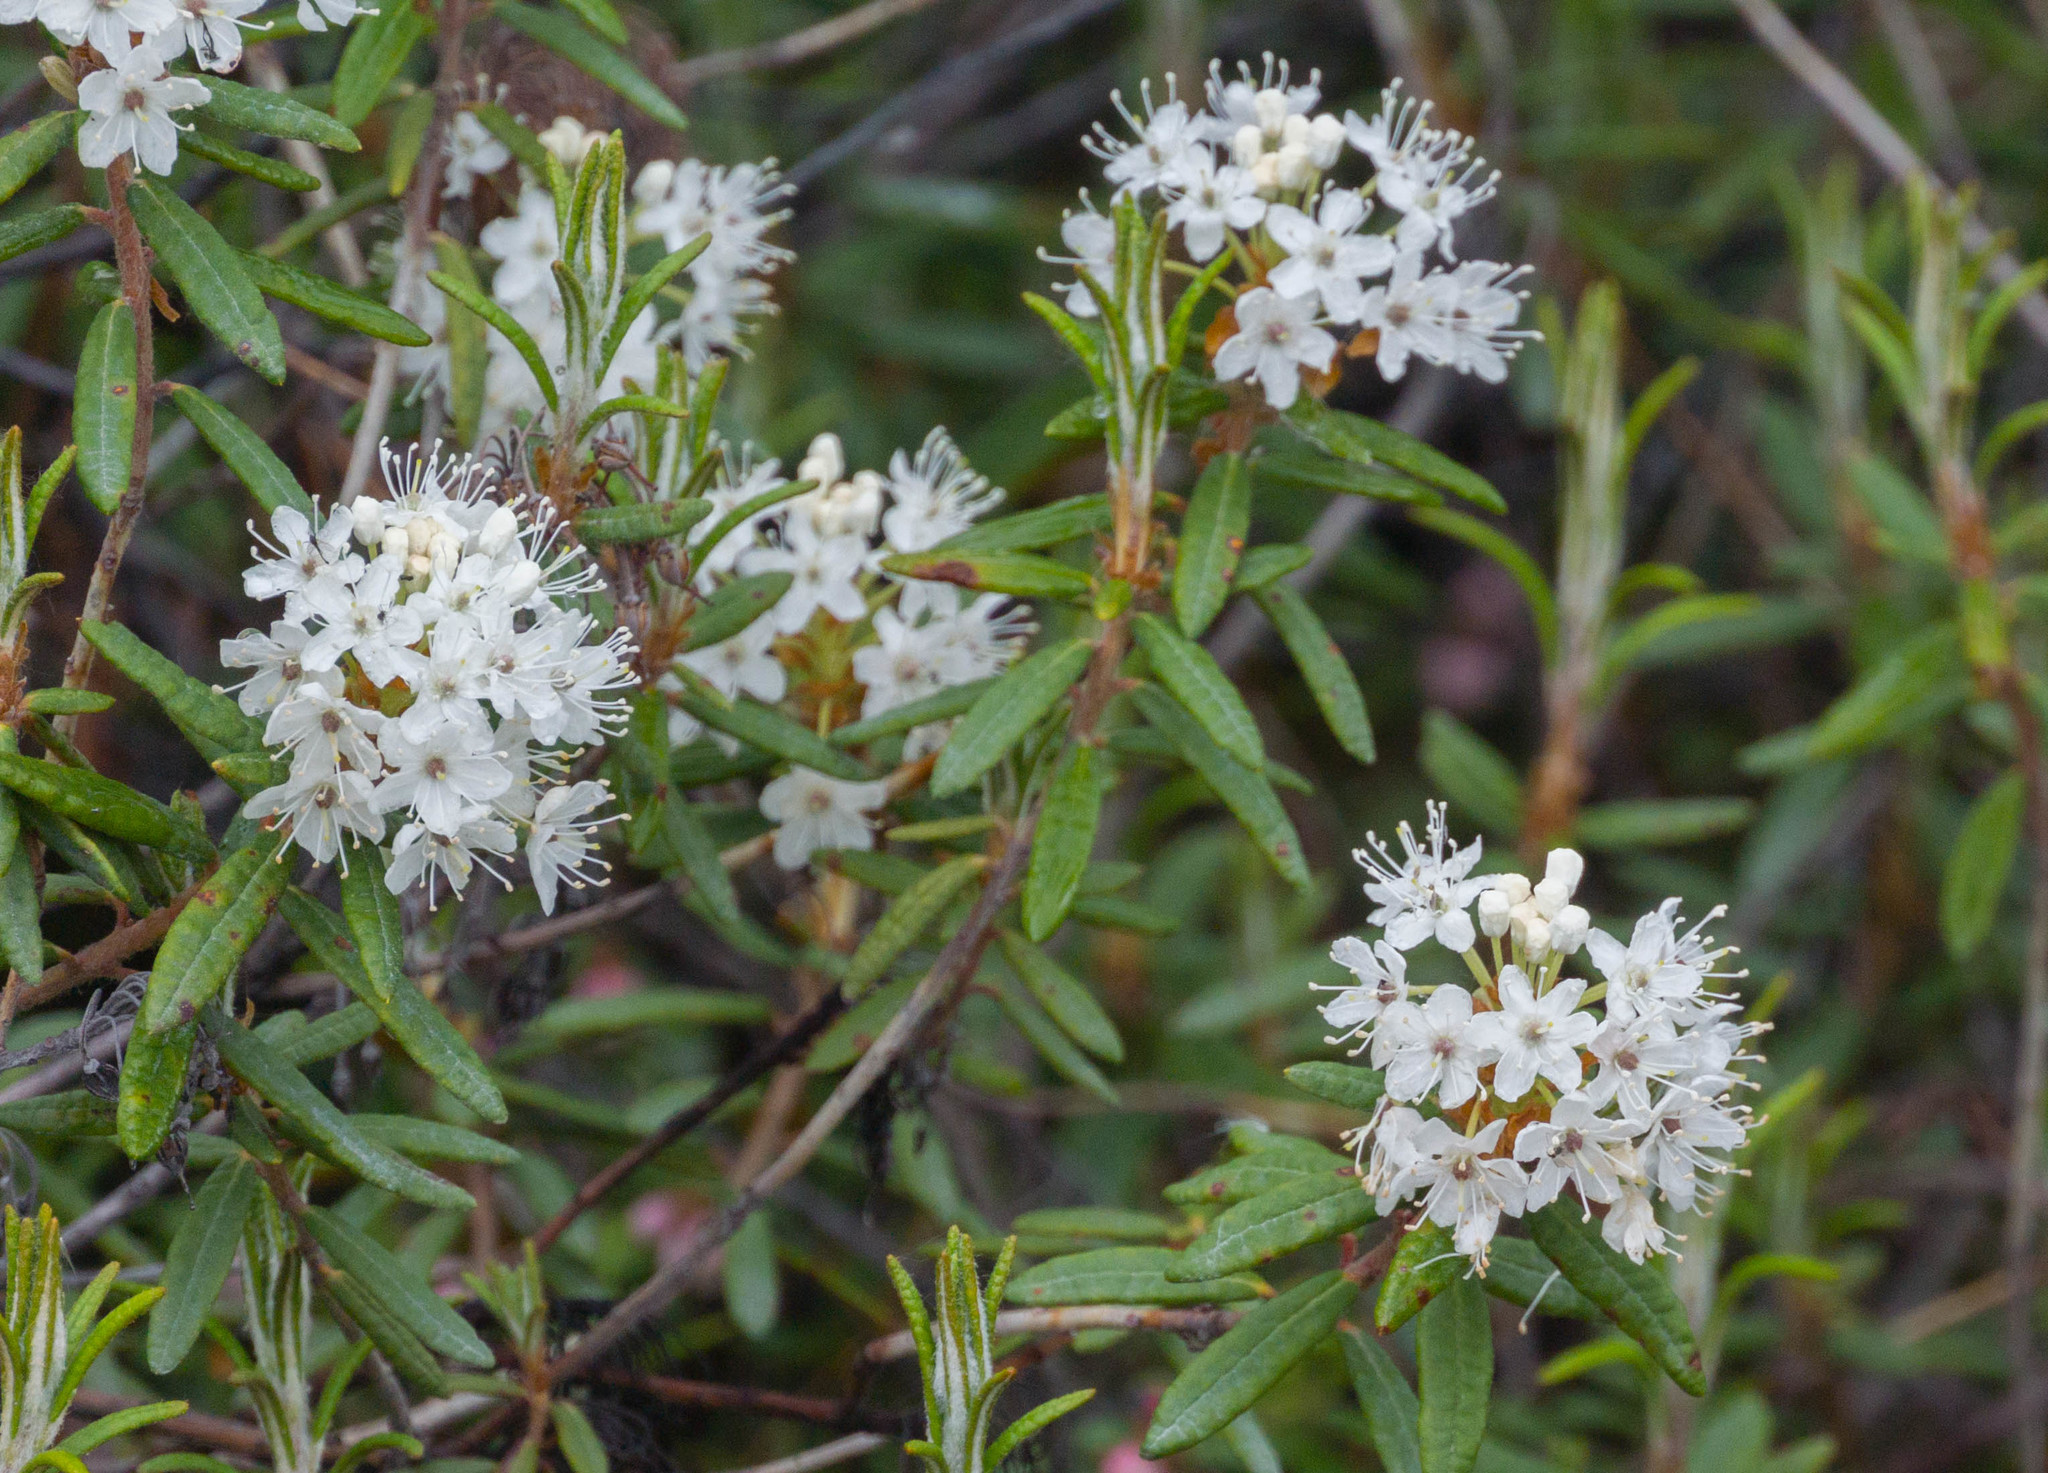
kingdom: Plantae
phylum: Tracheophyta
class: Magnoliopsida
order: Ericales
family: Ericaceae
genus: Rhododendron
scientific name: Rhododendron groenlandicum
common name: Bog labrador tea
